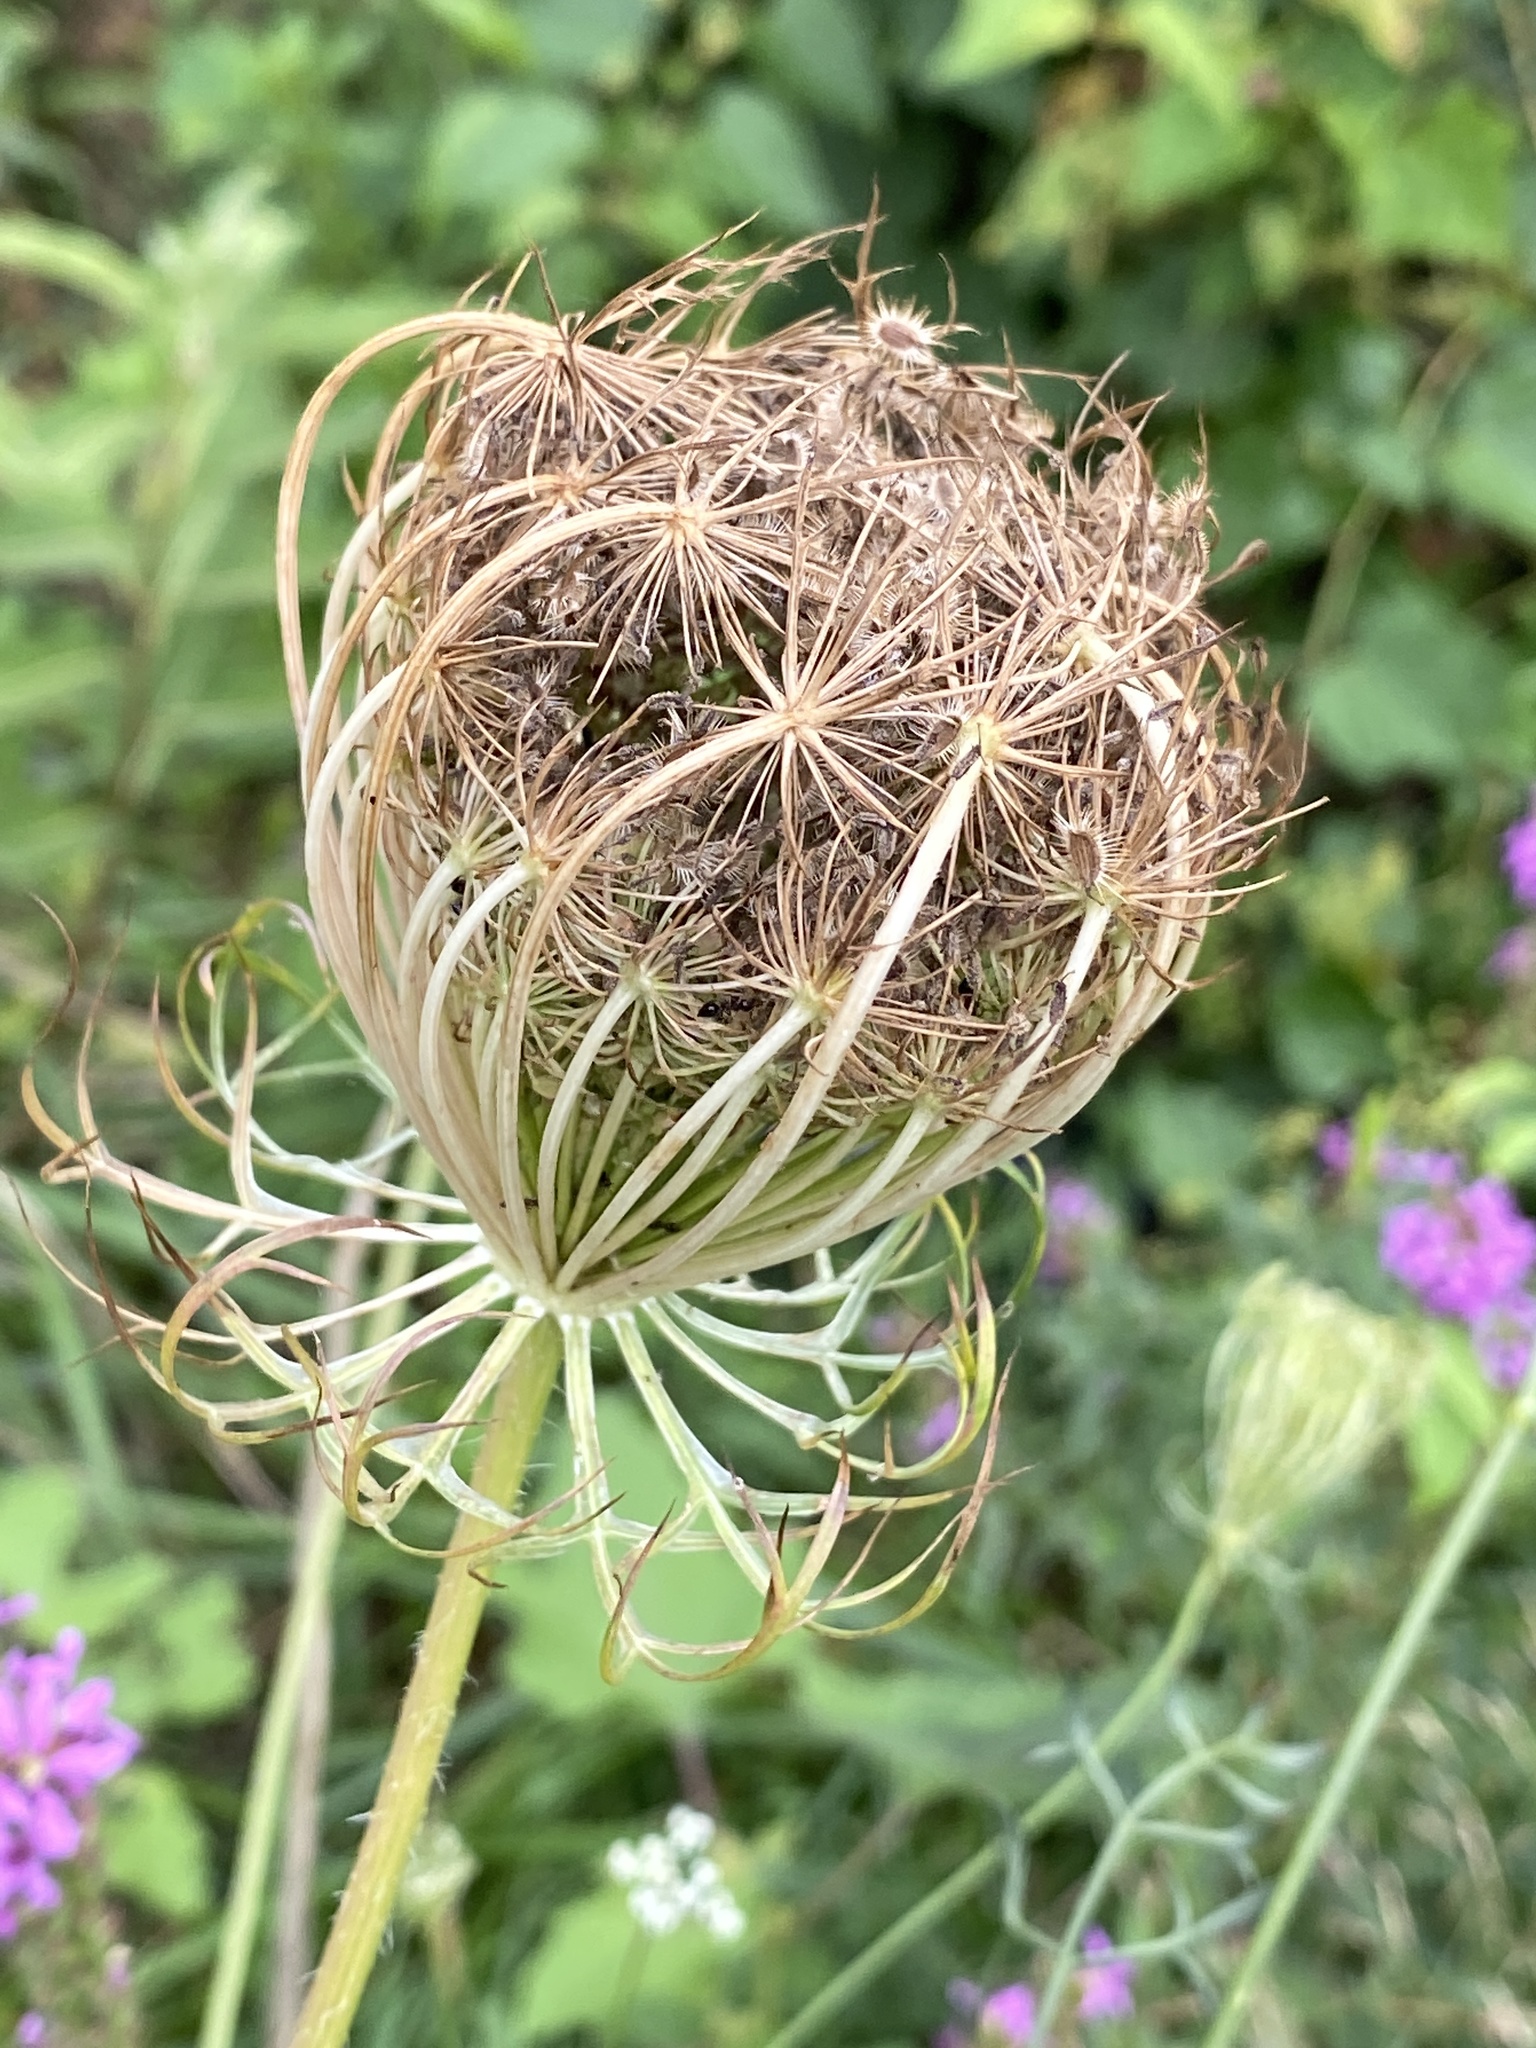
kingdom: Plantae
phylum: Tracheophyta
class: Magnoliopsida
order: Apiales
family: Apiaceae
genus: Daucus
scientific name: Daucus carota
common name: Wild carrot
